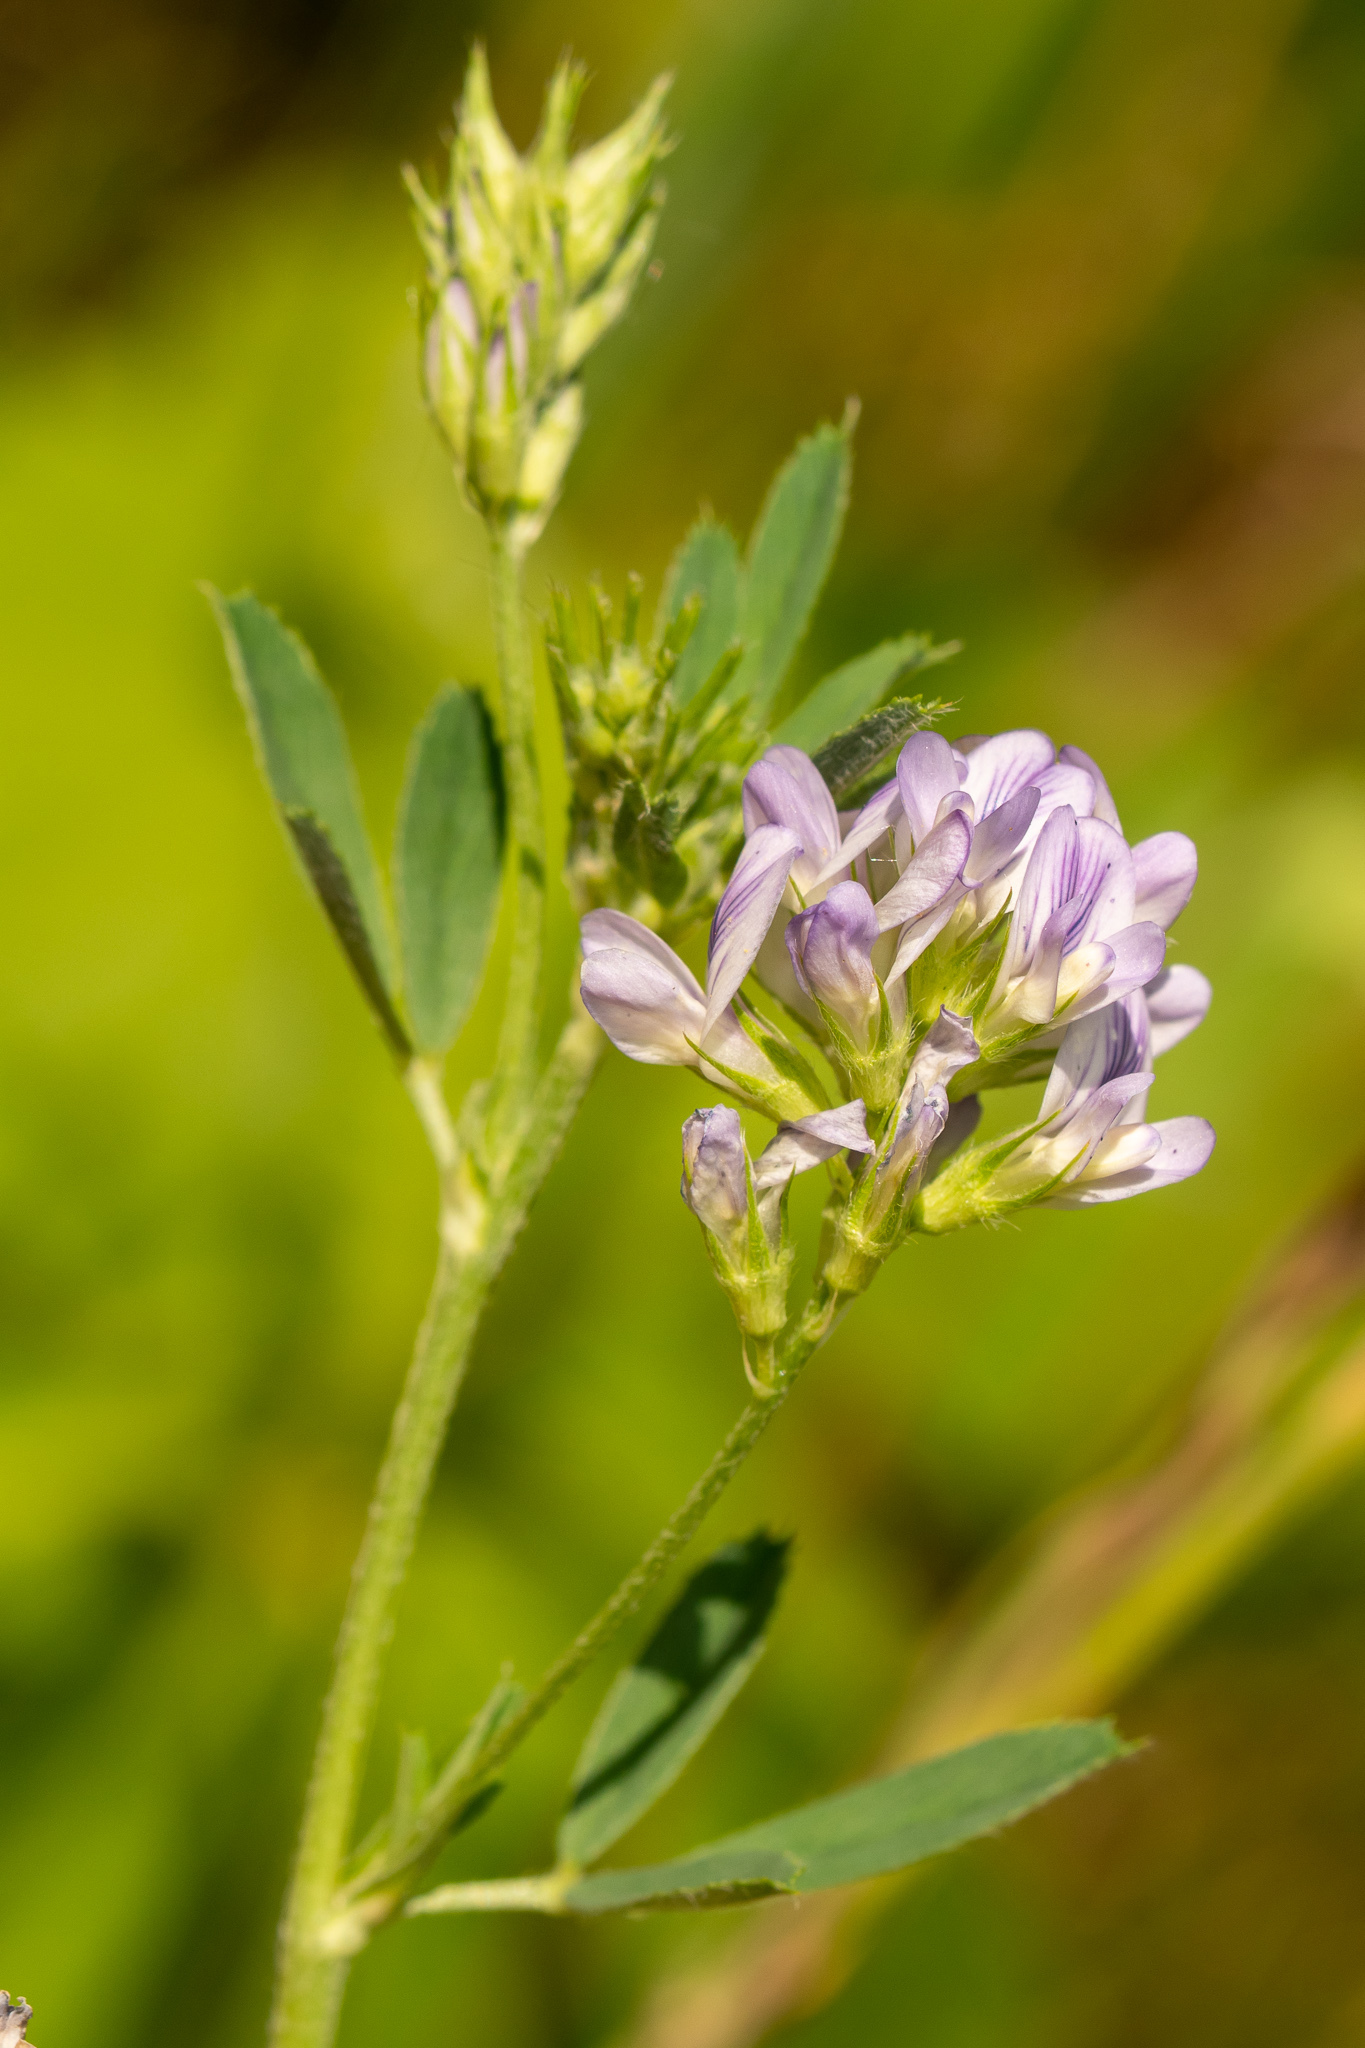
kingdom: Plantae
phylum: Tracheophyta
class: Magnoliopsida
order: Fabales
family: Fabaceae
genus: Medicago
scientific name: Medicago sativa
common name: Alfalfa
